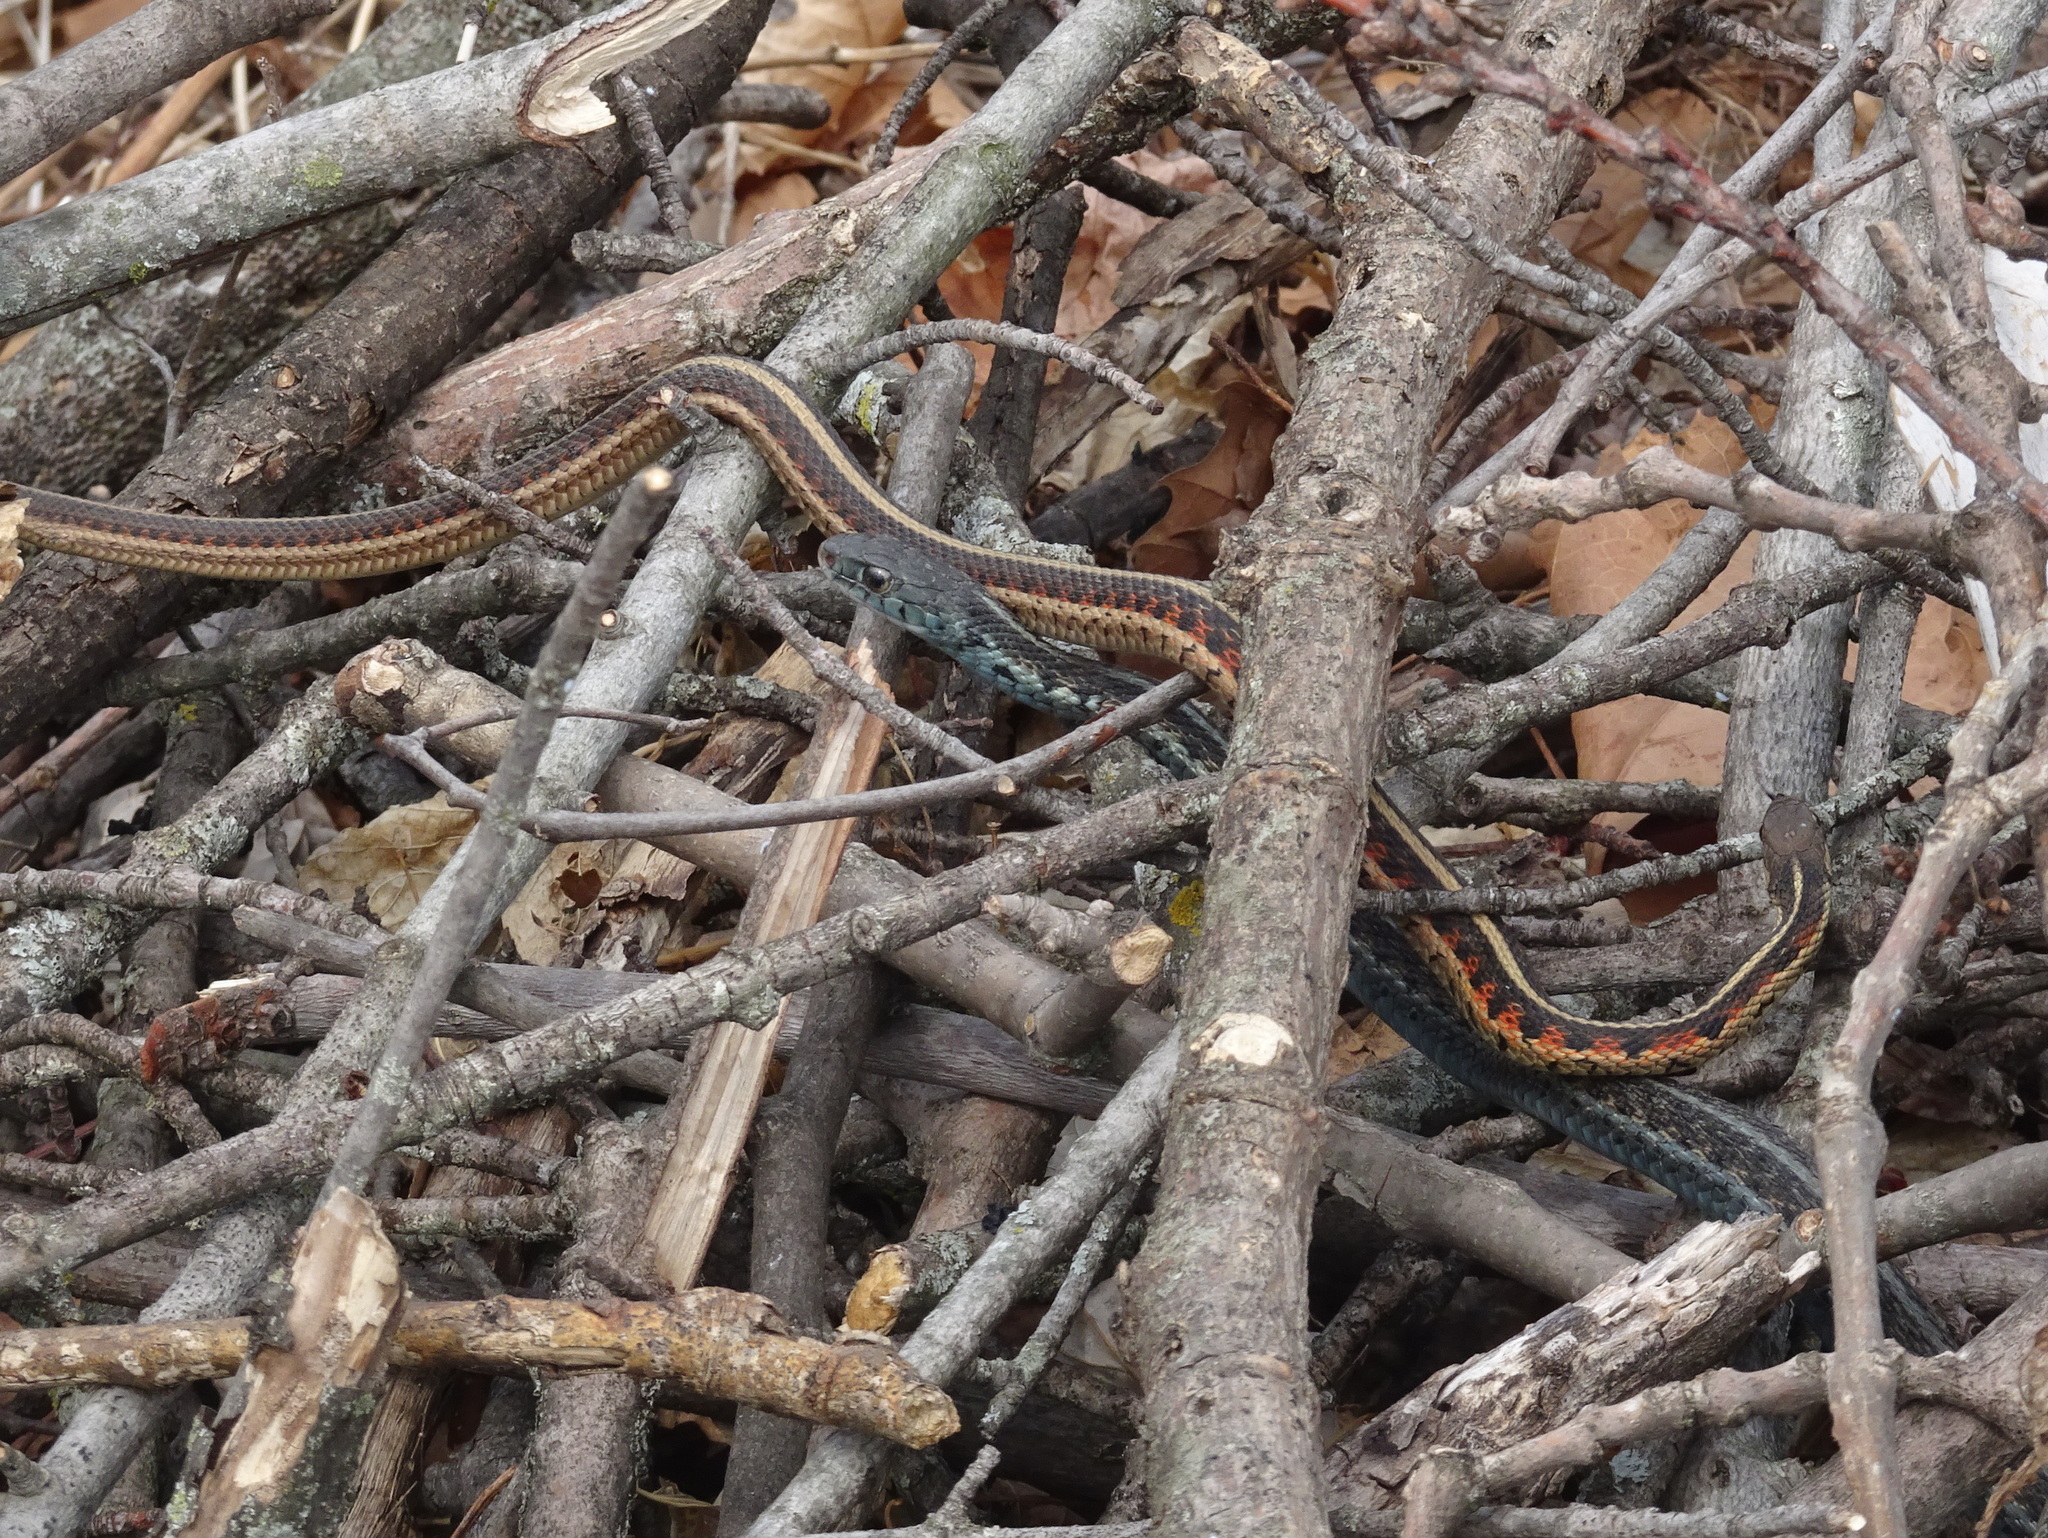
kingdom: Animalia
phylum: Chordata
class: Squamata
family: Colubridae
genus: Thamnophis
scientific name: Thamnophis sirtalis
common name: Common garter snake
